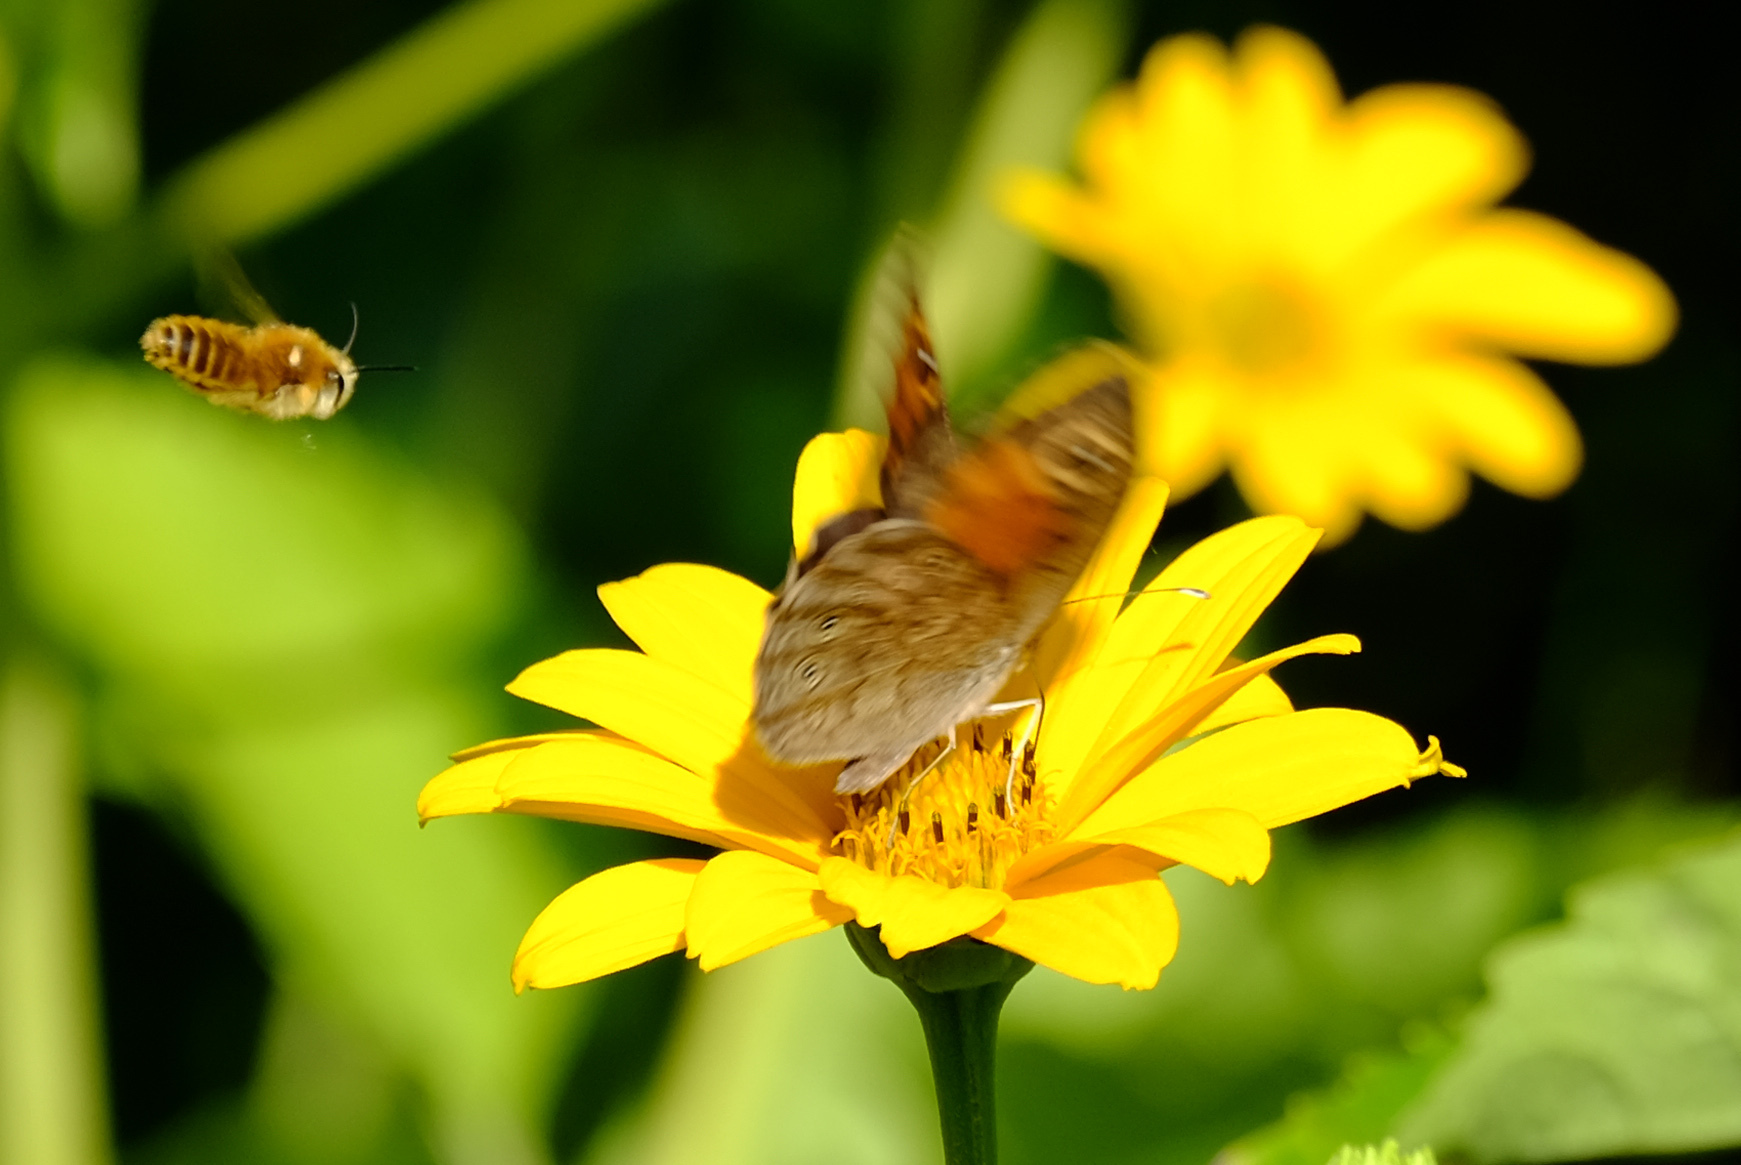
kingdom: Animalia
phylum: Arthropoda
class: Insecta
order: Lepidoptera
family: Nymphalidae
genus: Pararge
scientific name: Pararge Lasiommata maera
